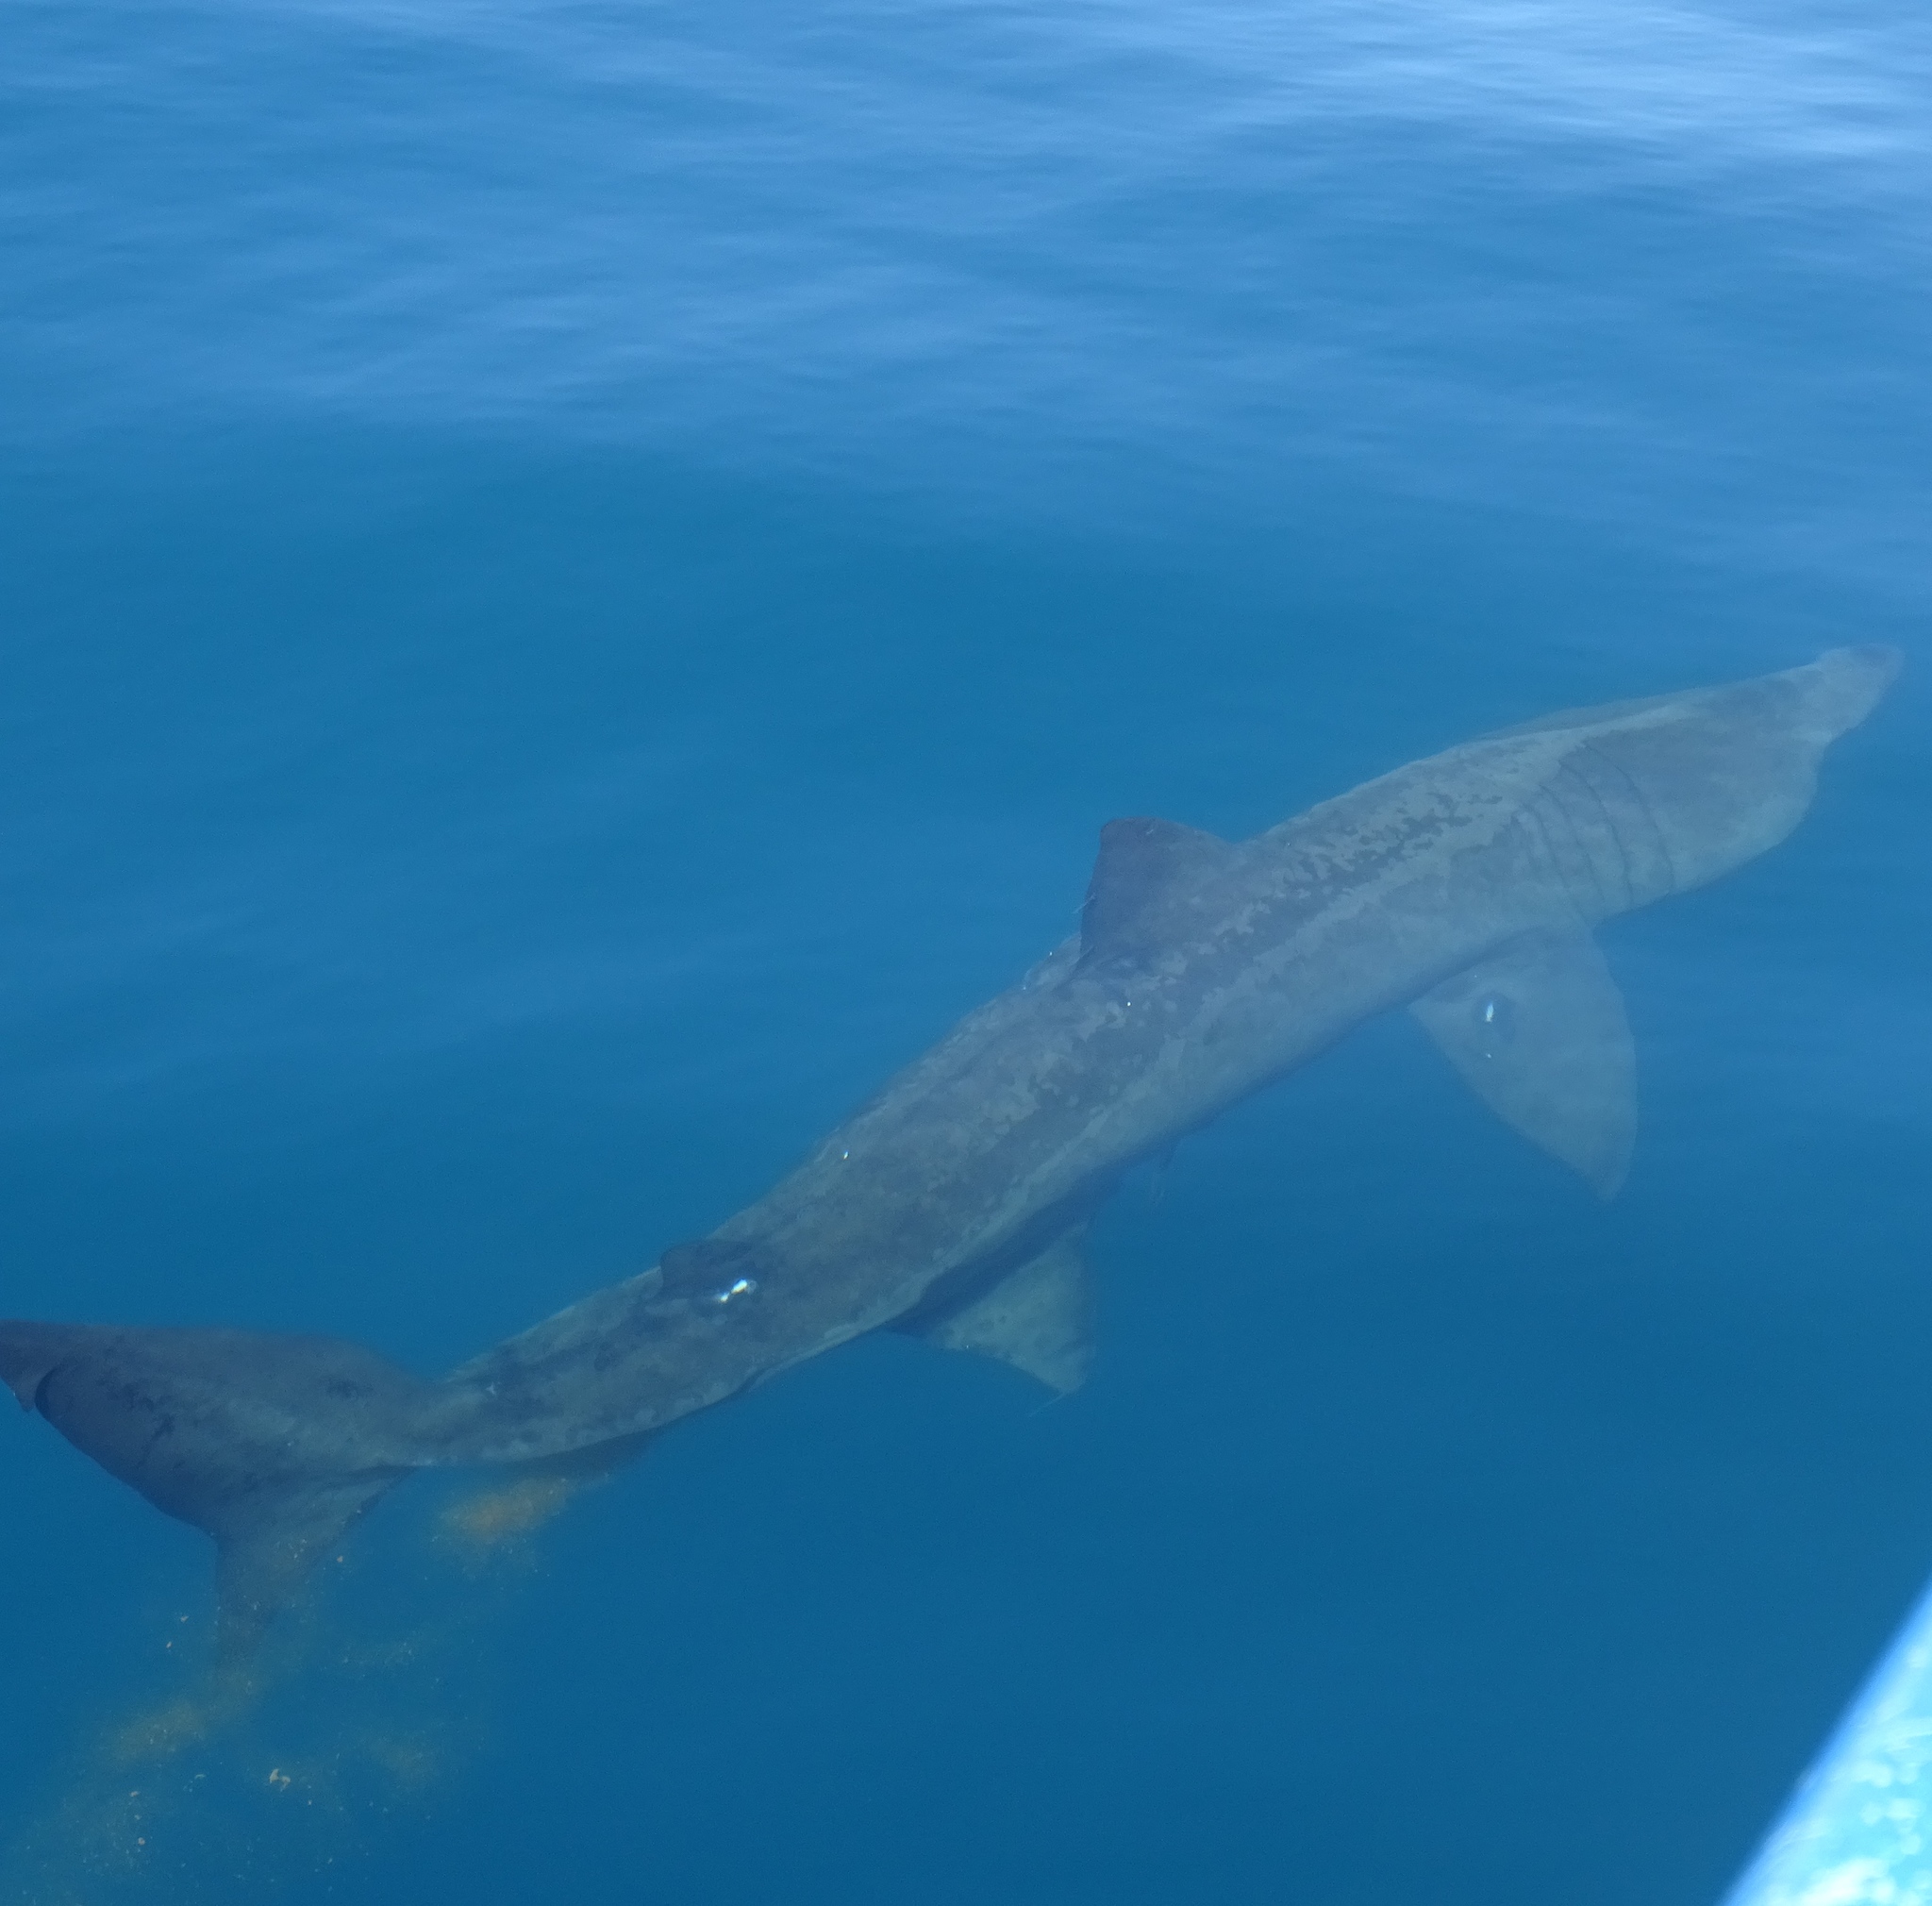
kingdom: Animalia
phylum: Chordata
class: Elasmobranchii
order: Lamniformes
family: Cetorhinidae
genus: Cetorhinus
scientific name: Cetorhinus maximus
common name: Basking shark
